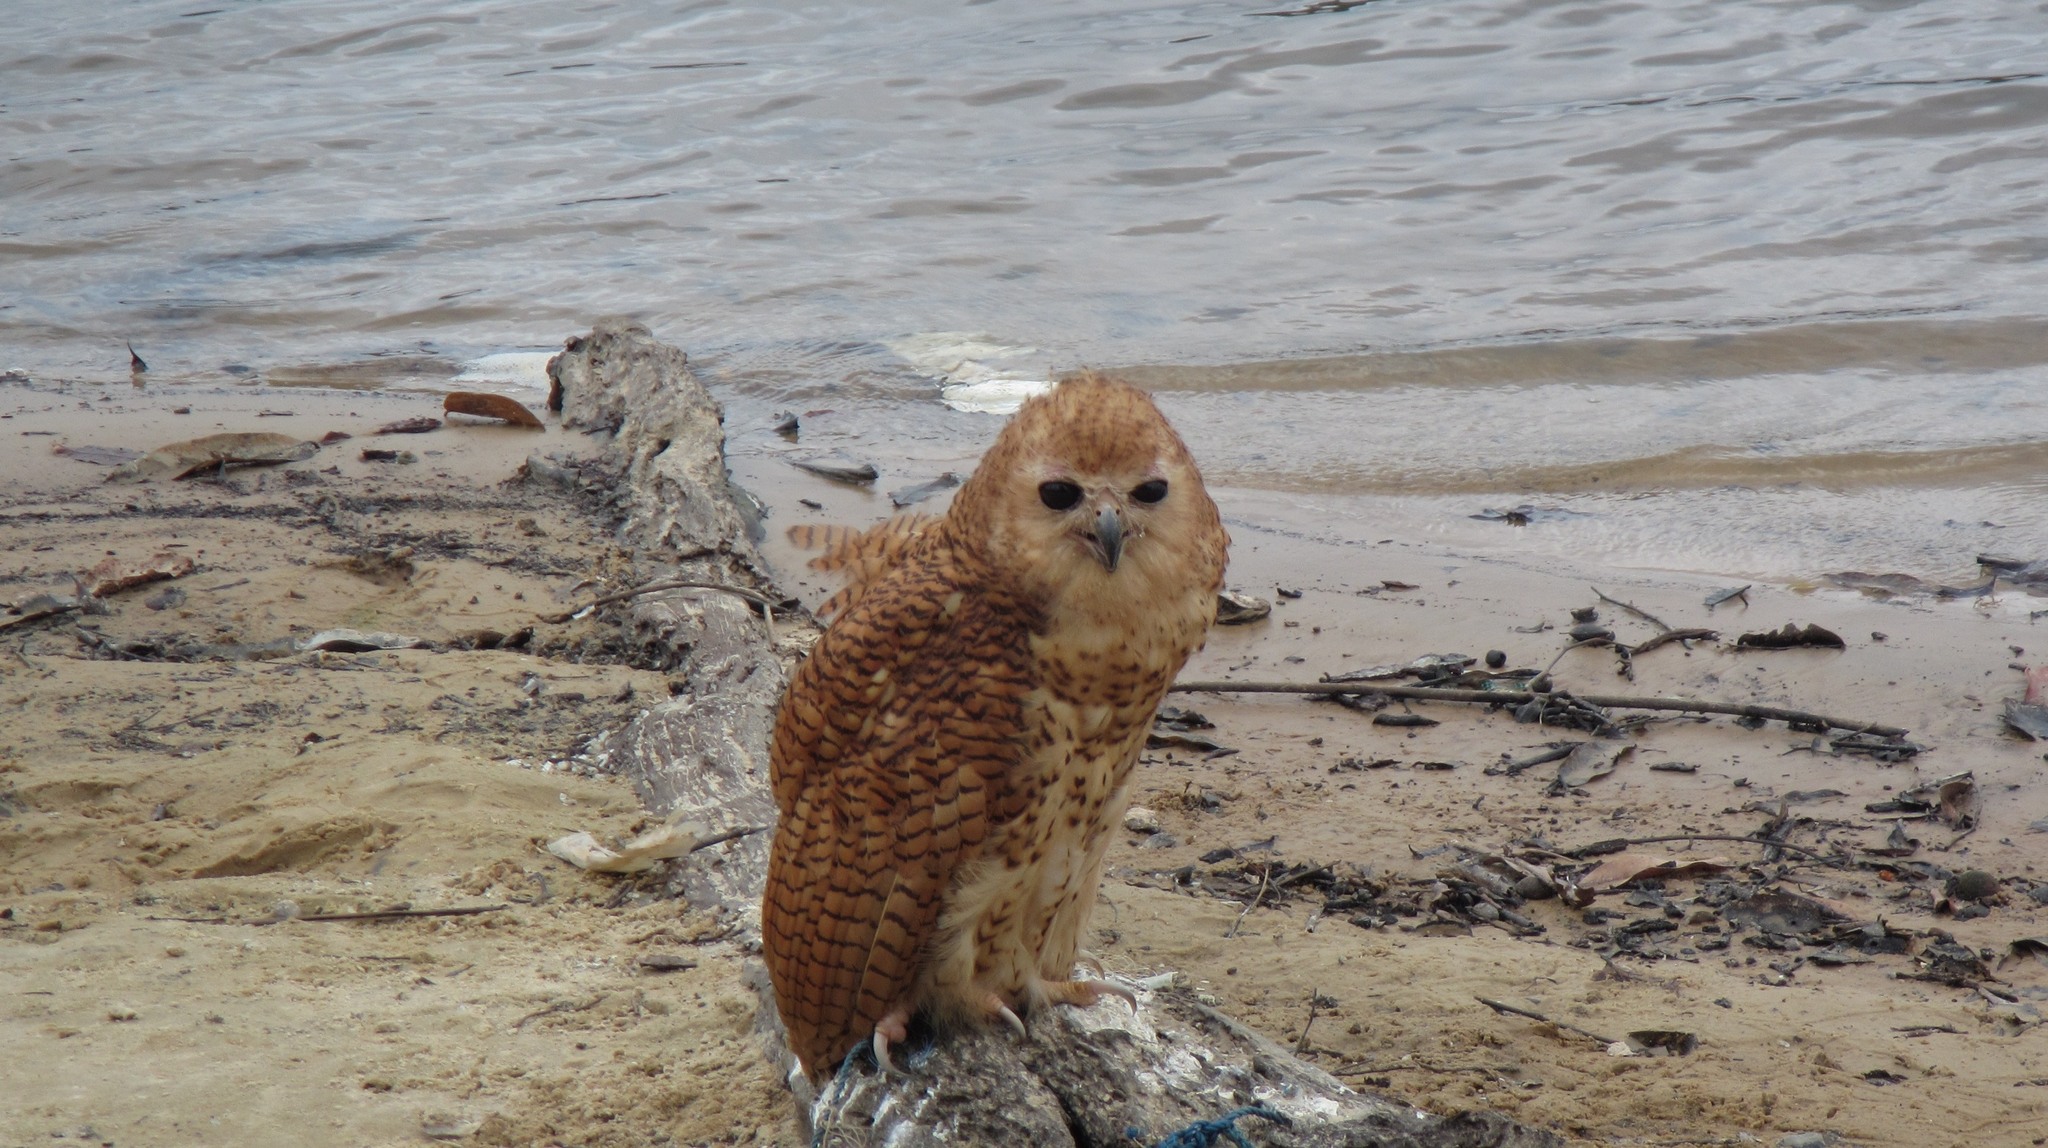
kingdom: Animalia
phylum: Chordata
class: Aves
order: Strigiformes
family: Strigidae
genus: Scotopelia
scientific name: Scotopelia peli
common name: Pel's fishing owl
